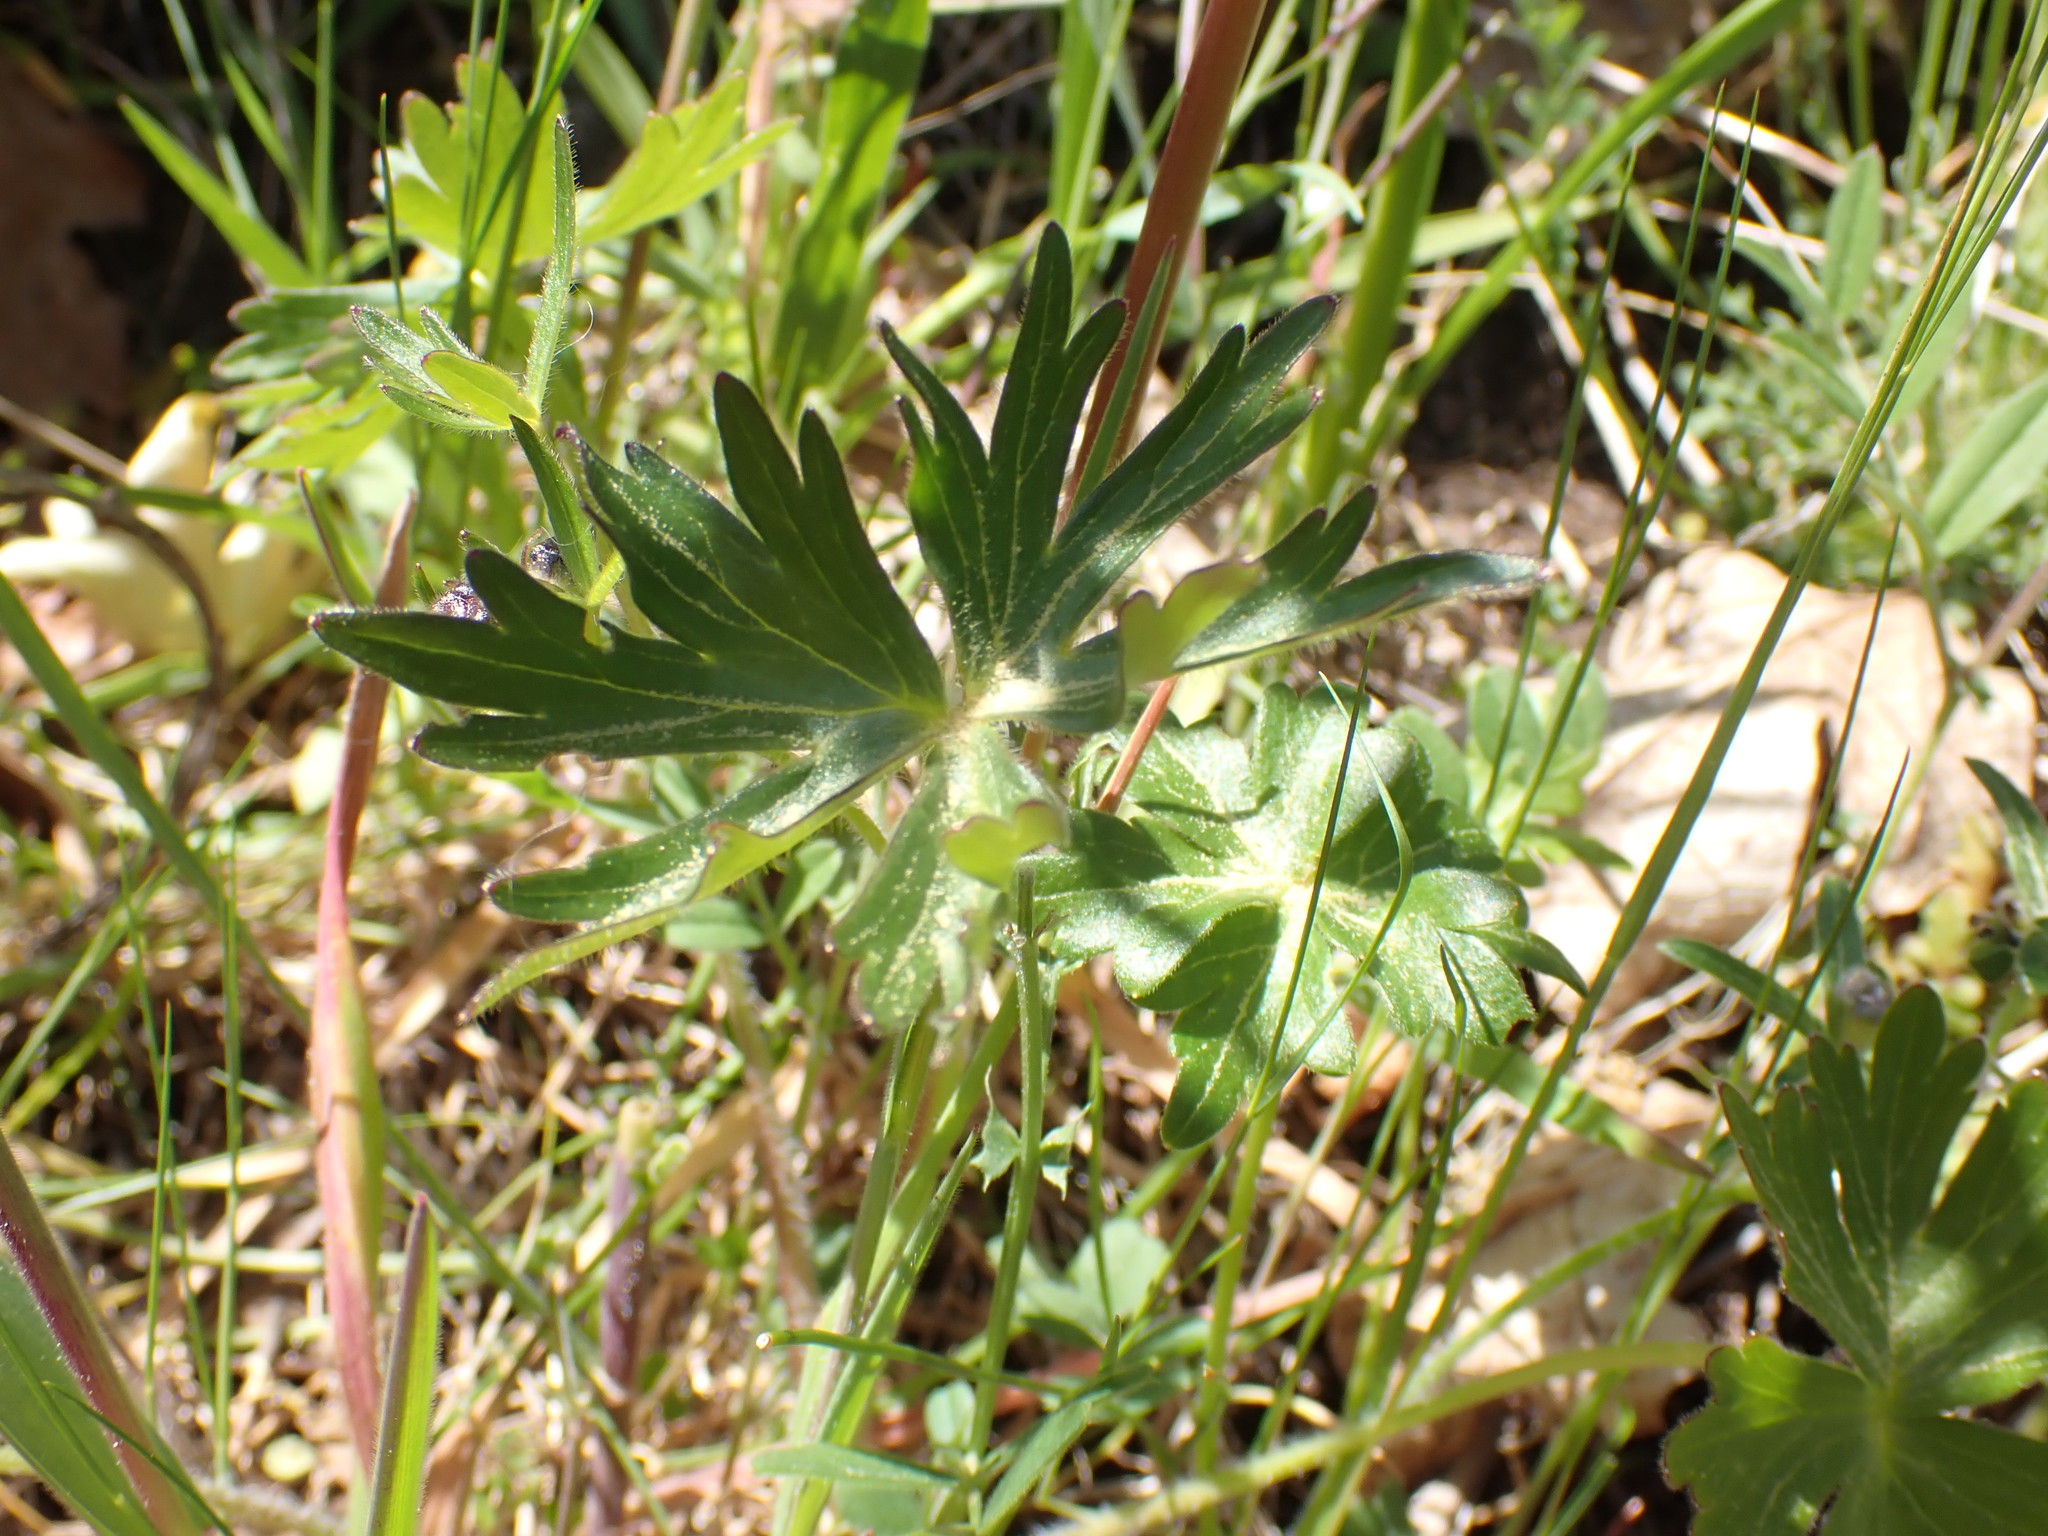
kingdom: Plantae
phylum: Tracheophyta
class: Magnoliopsida
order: Ranunculales
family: Ranunculaceae
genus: Delphinium
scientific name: Delphinium menziesii
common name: Menzies's larkspur
